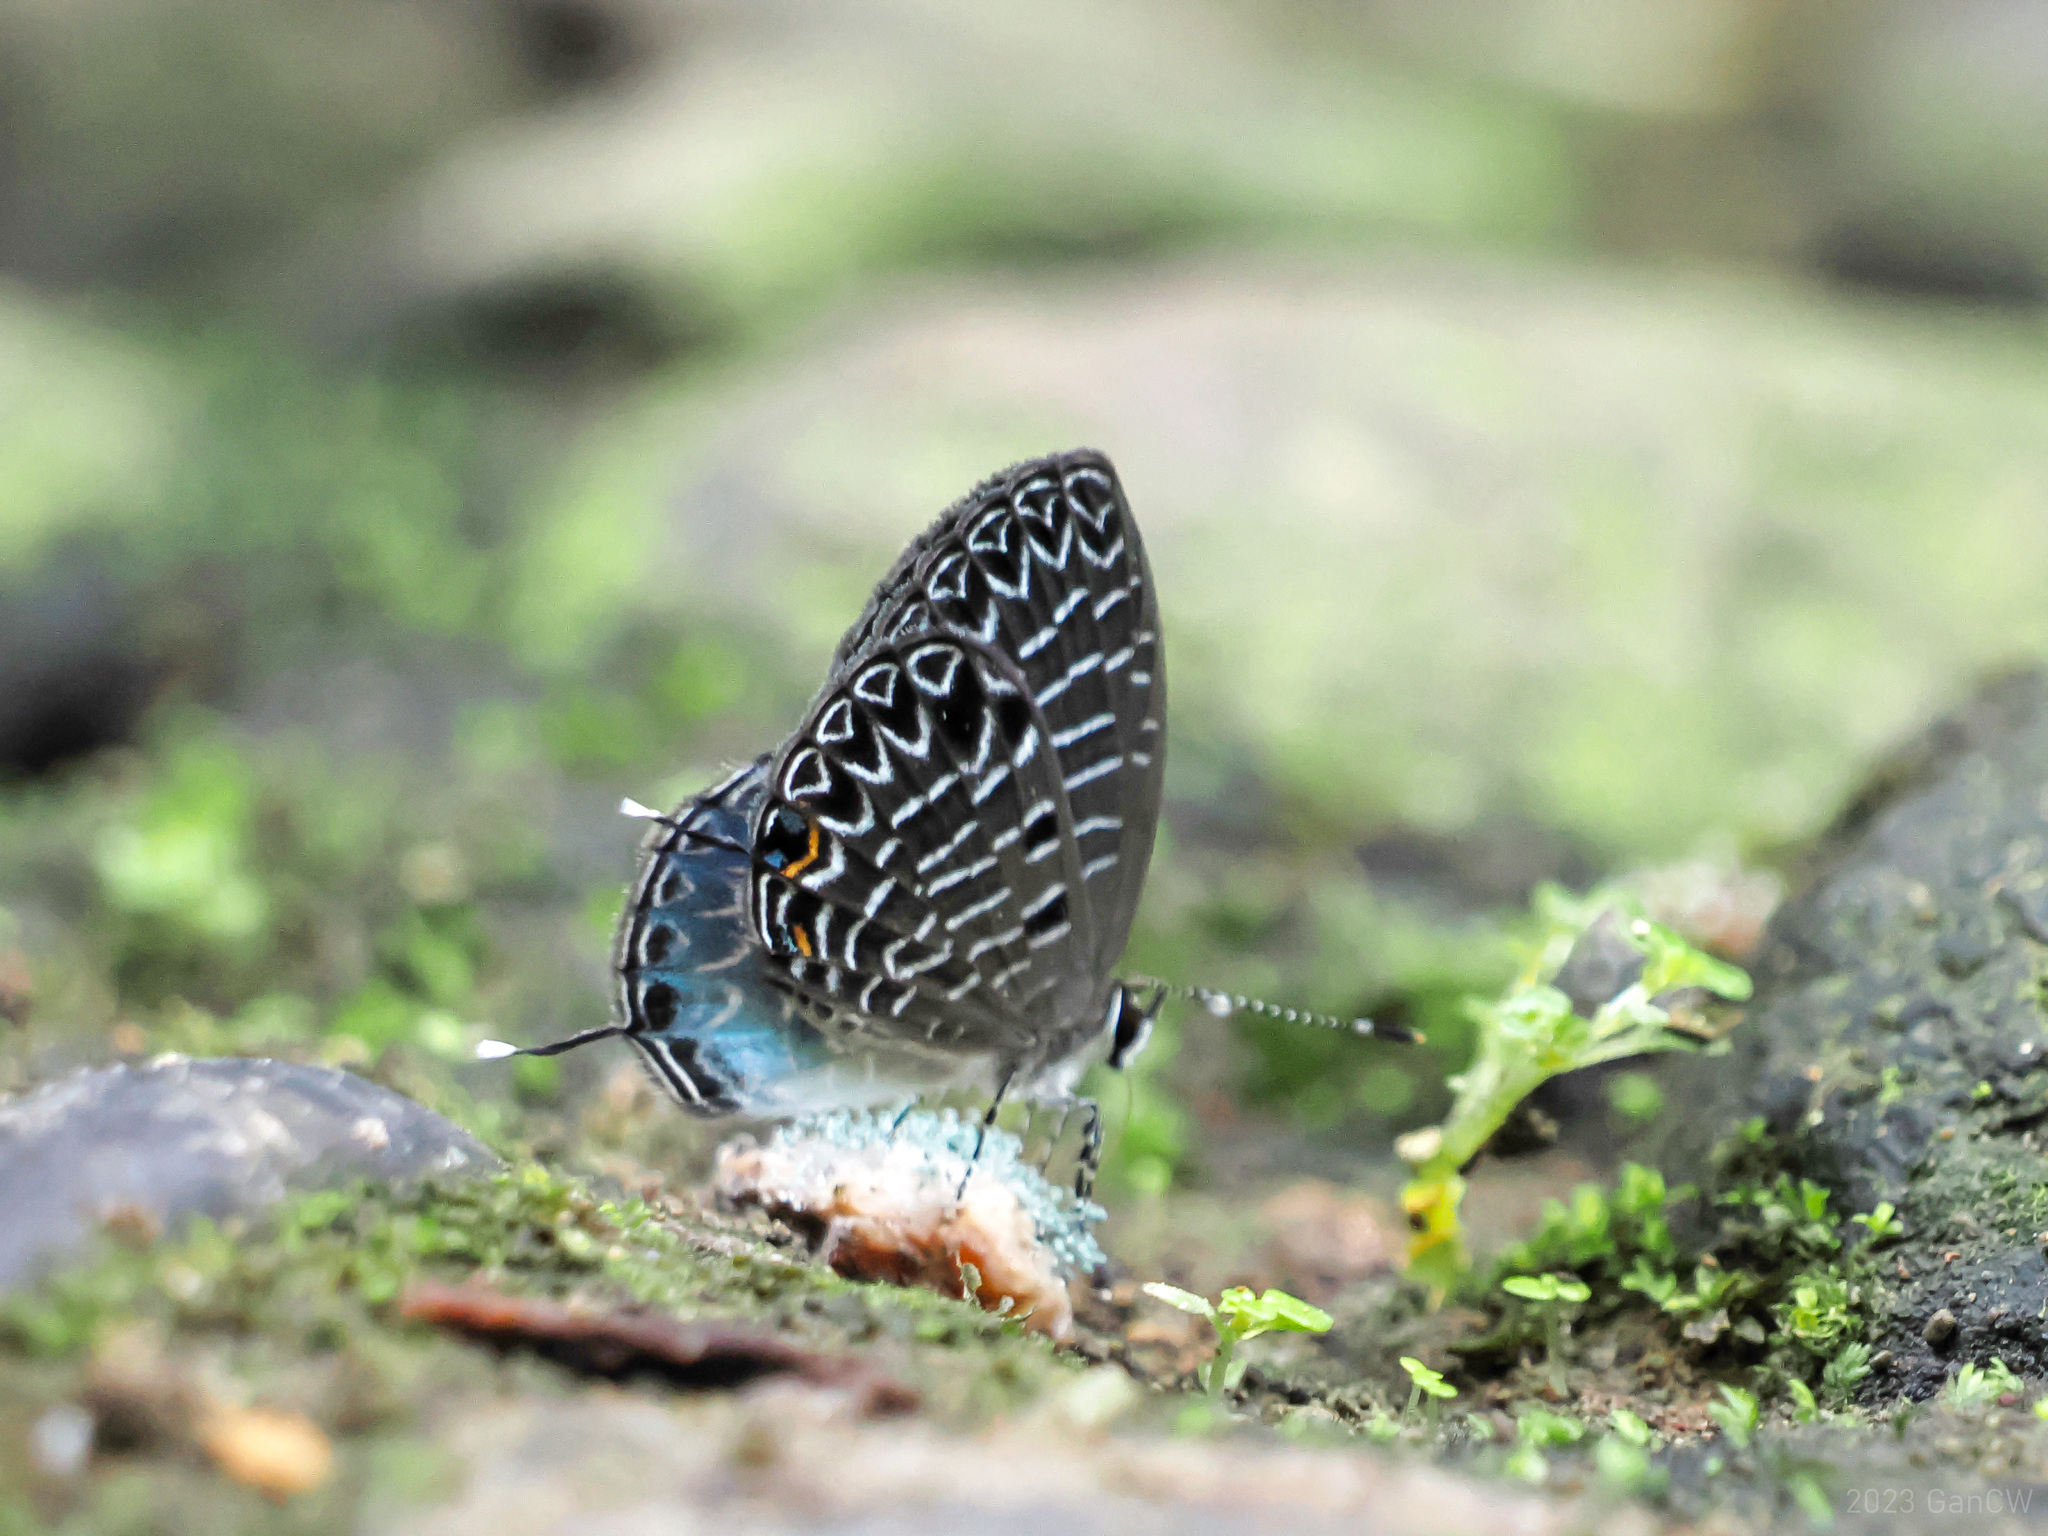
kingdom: Animalia
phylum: Arthropoda
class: Insecta
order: Lepidoptera
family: Lycaenidae
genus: Jamides
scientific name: Jamides
